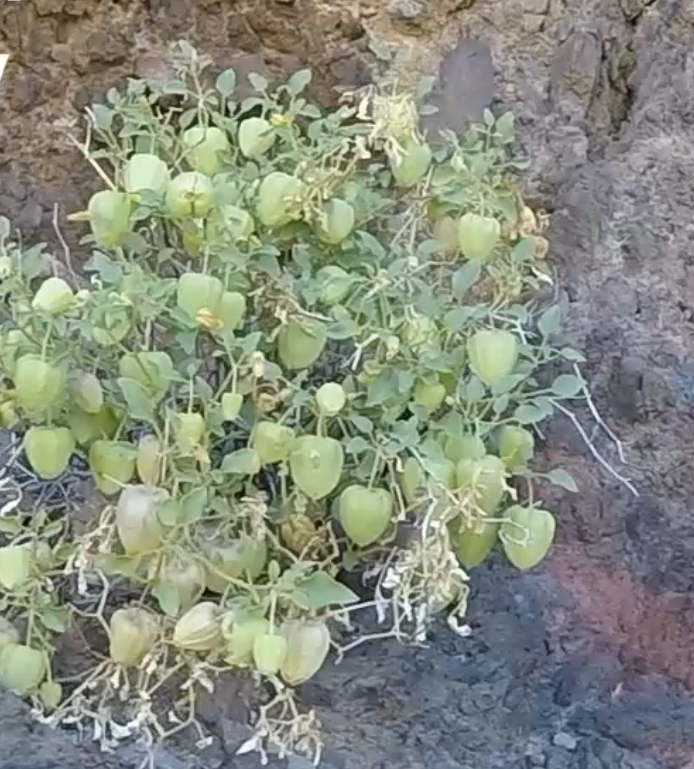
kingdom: Plantae
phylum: Tracheophyta
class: Magnoliopsida
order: Solanales
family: Solanaceae
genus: Physalis
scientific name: Physalis crassifolia
